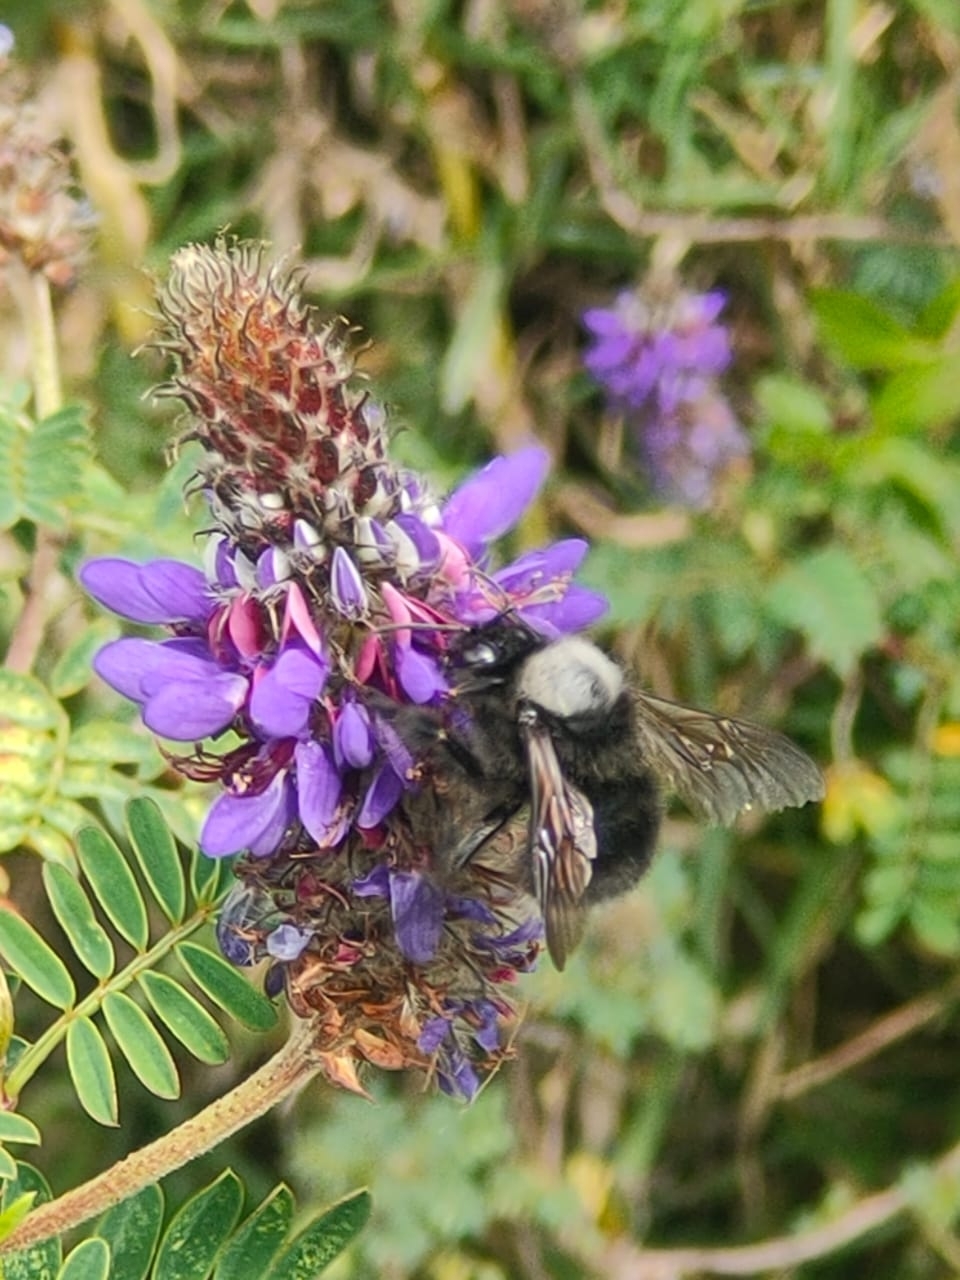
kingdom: Animalia
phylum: Arthropoda
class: Insecta
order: Hymenoptera
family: Apidae
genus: Bombus
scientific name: Bombus funebris
